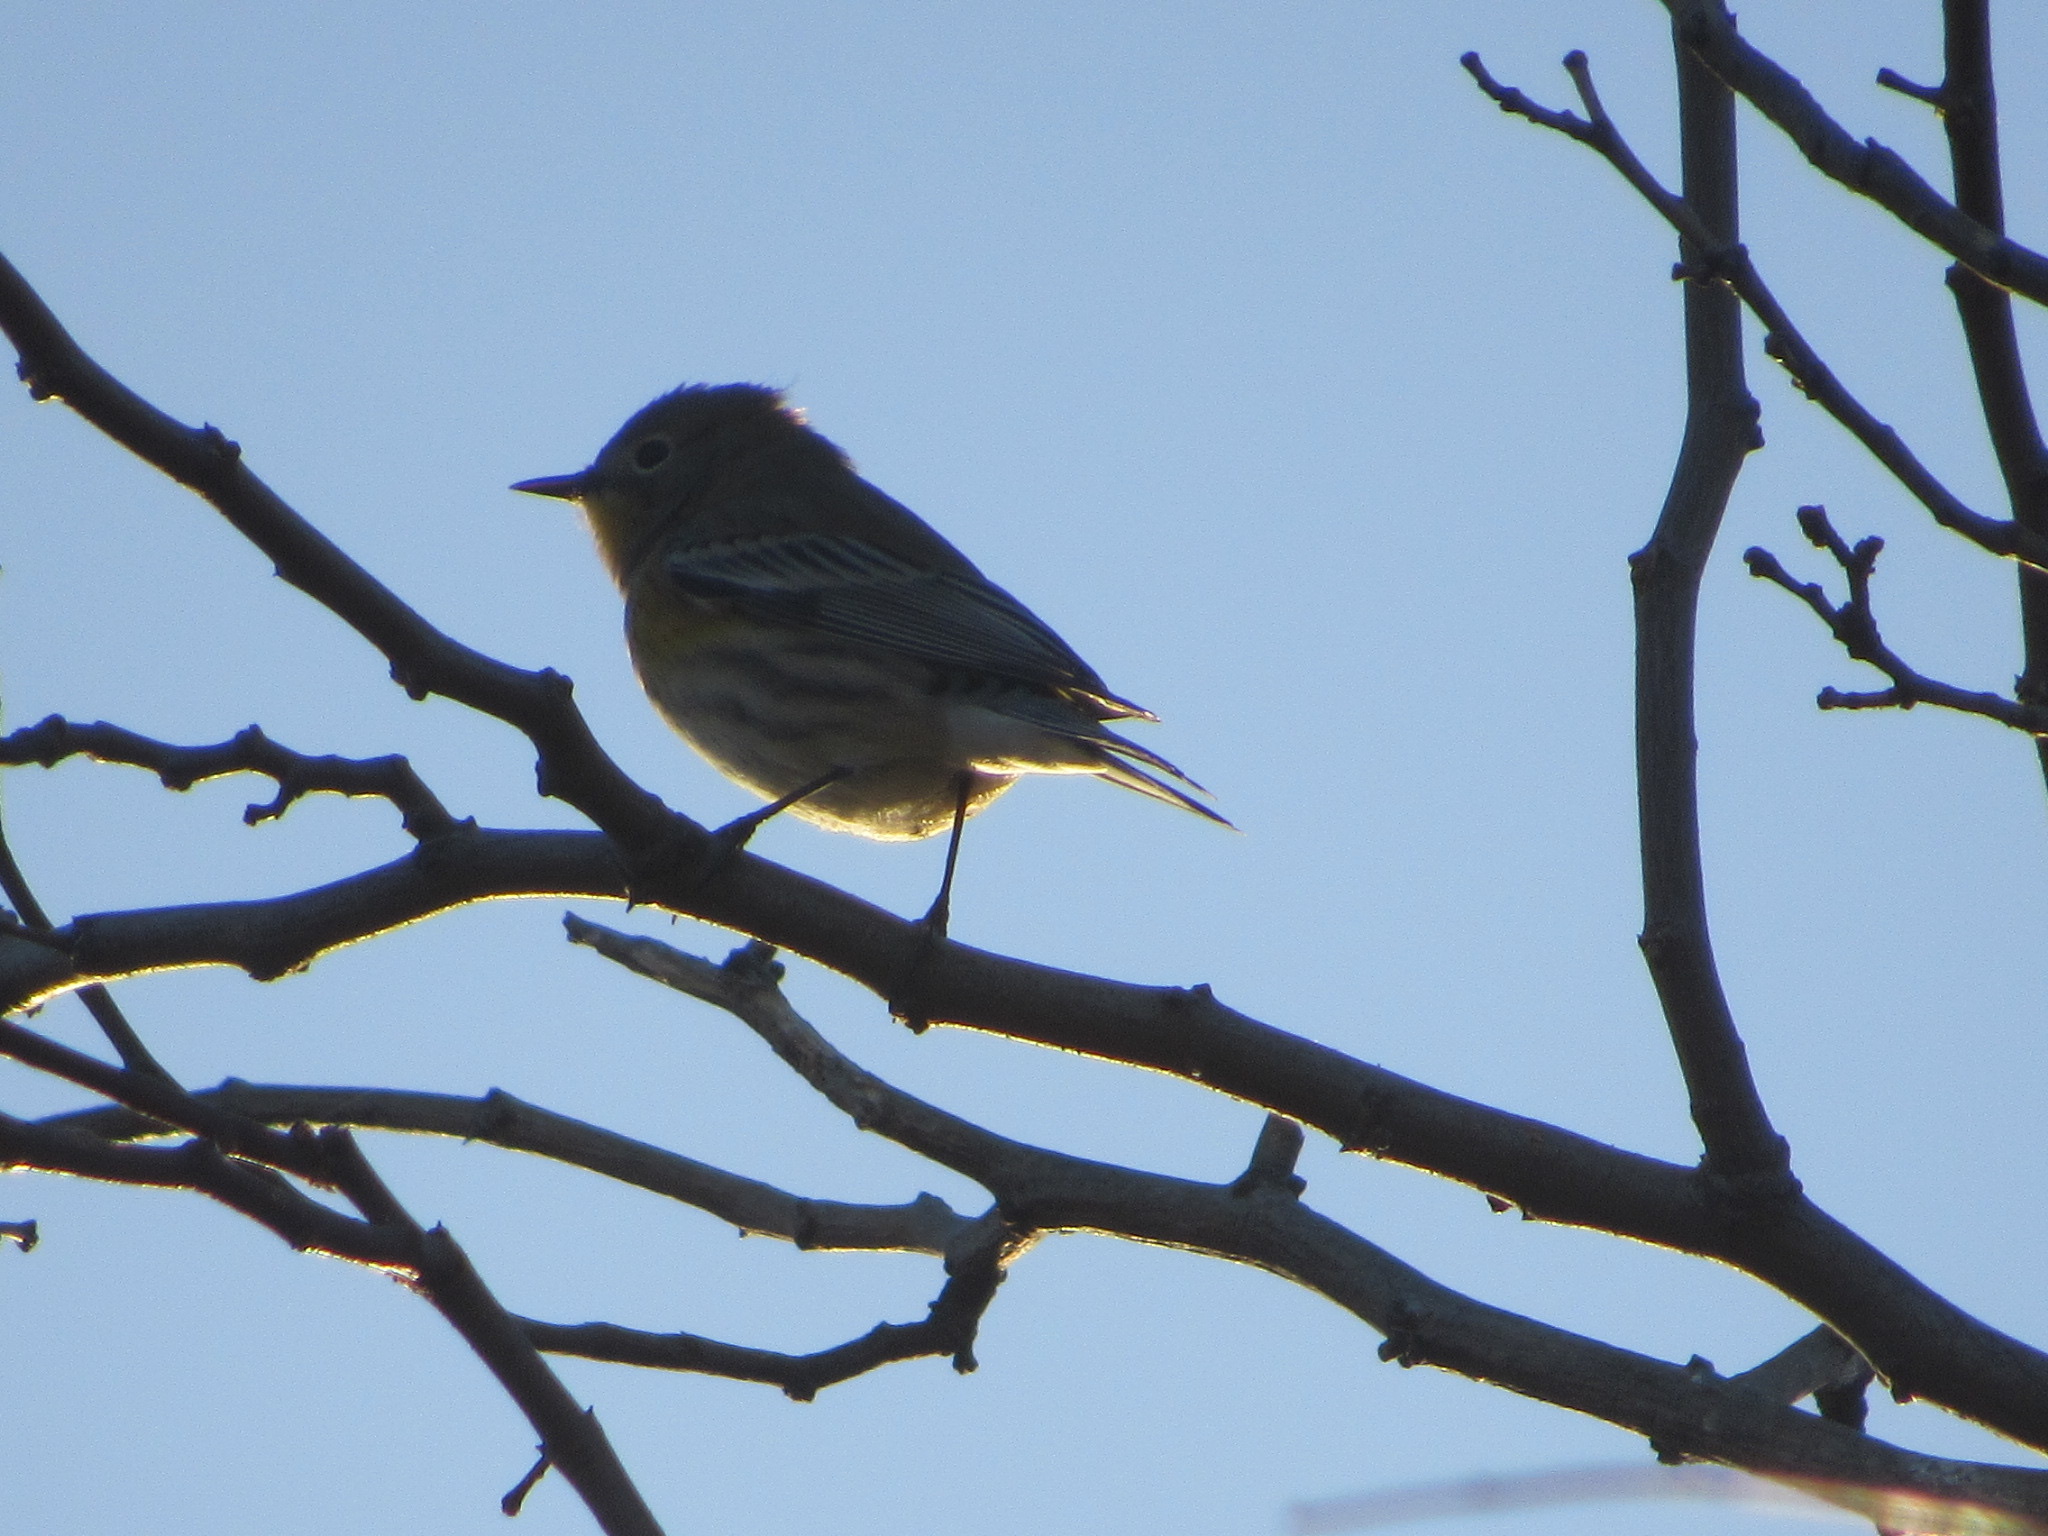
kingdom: Animalia
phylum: Chordata
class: Aves
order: Passeriformes
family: Parulidae
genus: Setophaga
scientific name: Setophaga coronata
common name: Myrtle warbler
